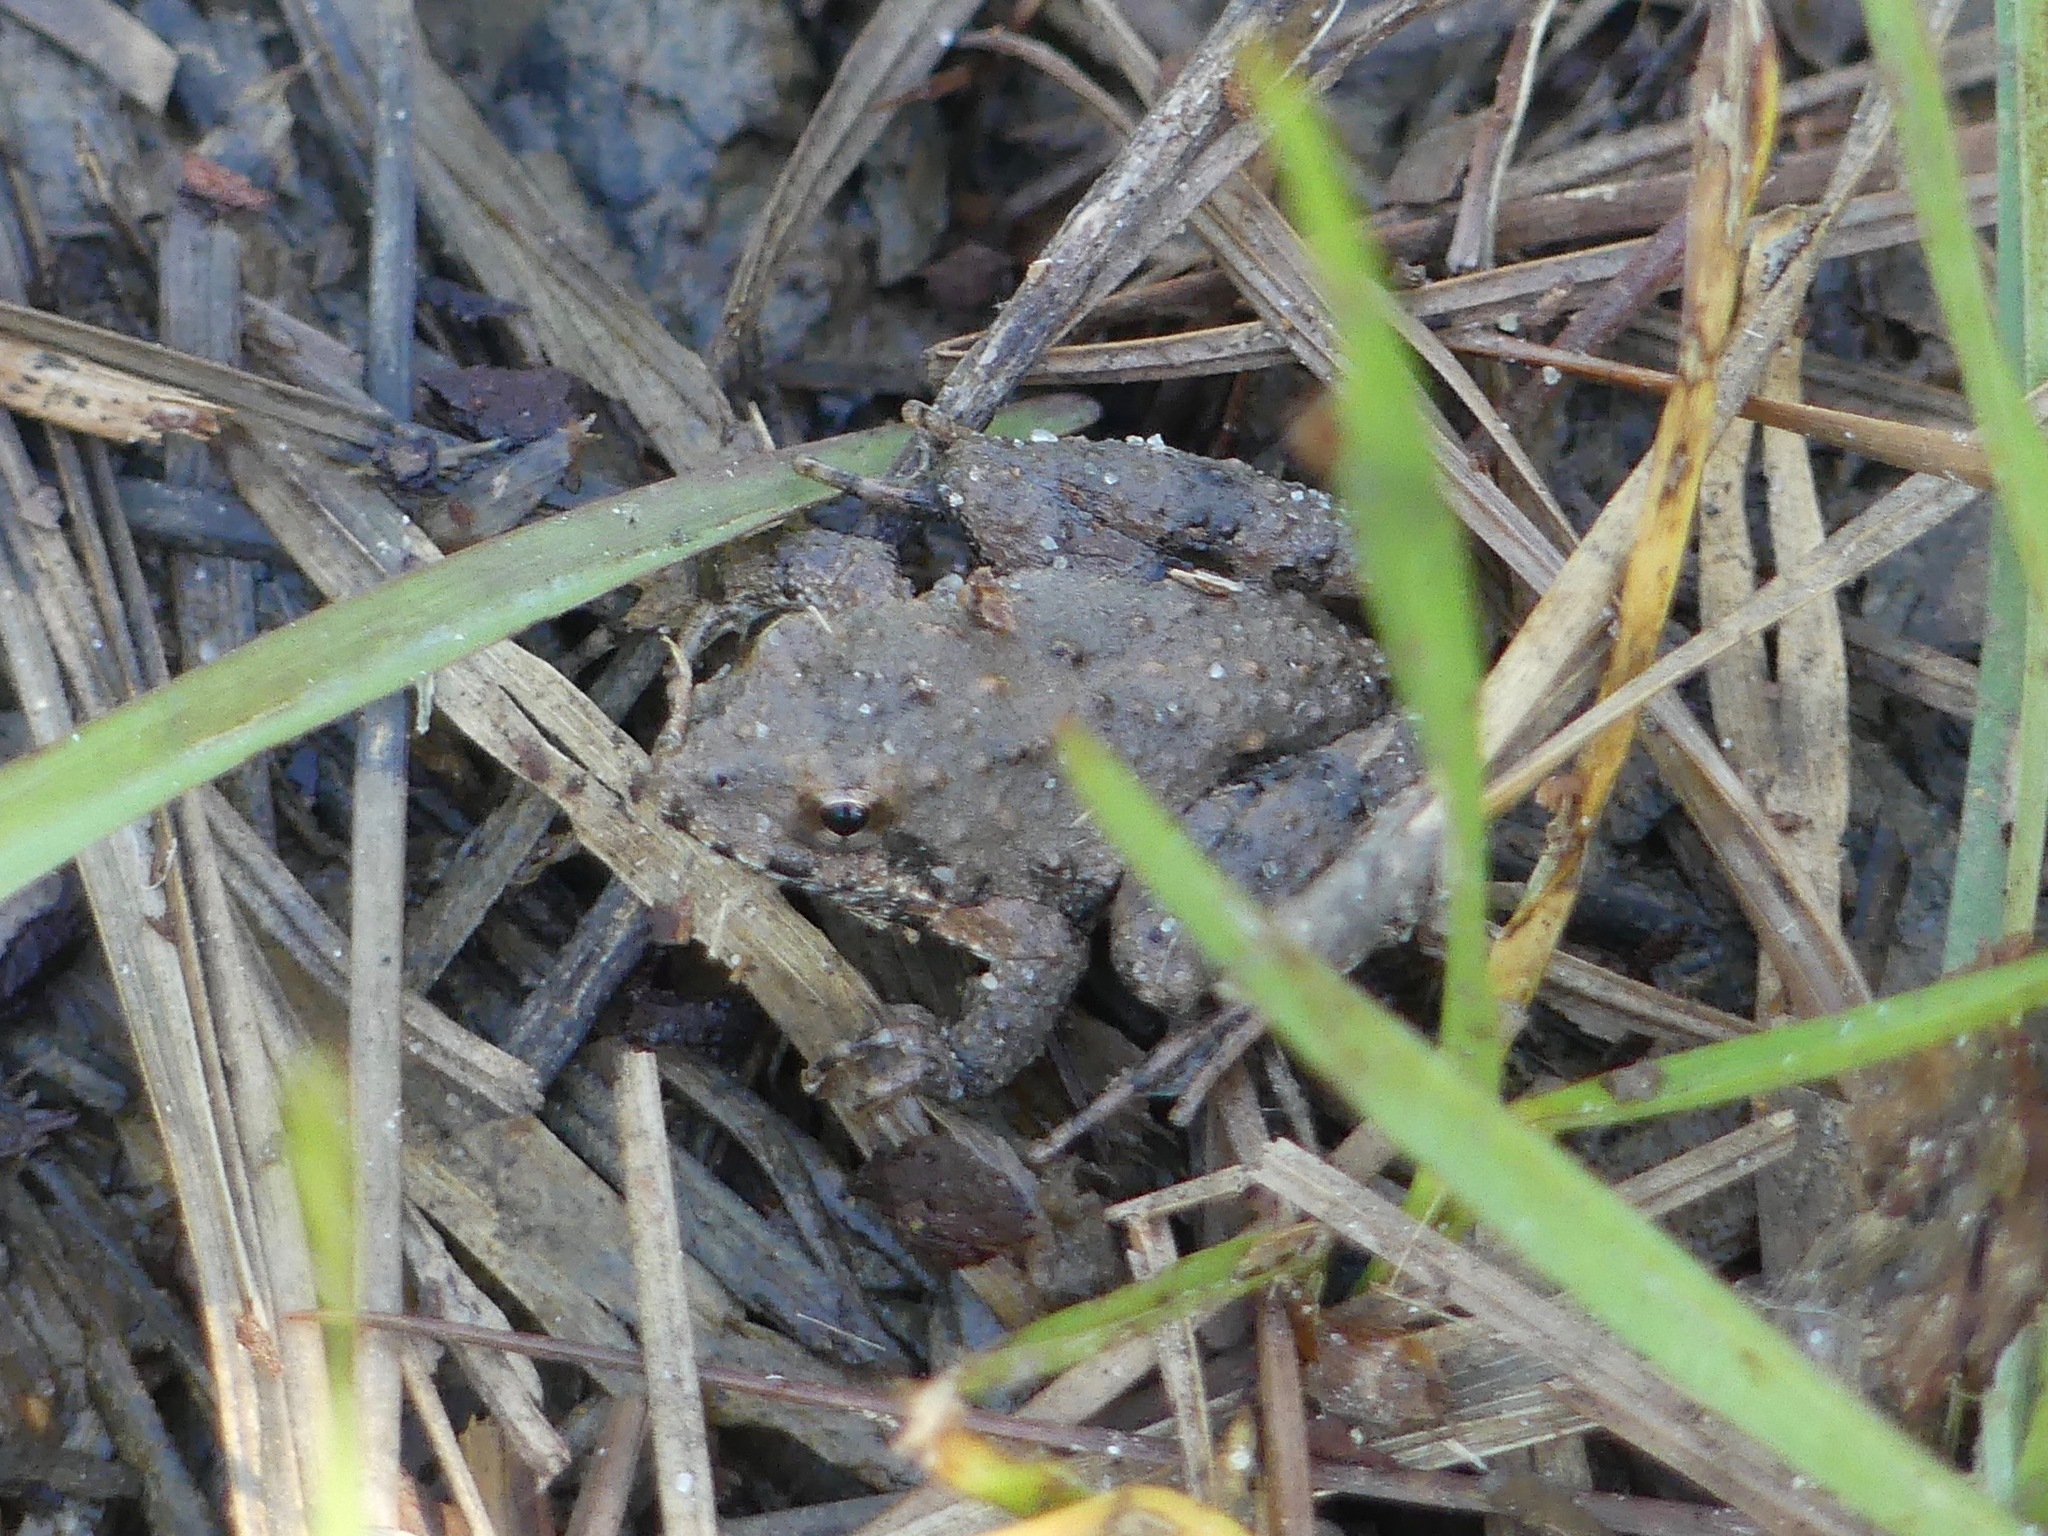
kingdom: Animalia
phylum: Chordata
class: Amphibia
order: Anura
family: Hylidae
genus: Acris
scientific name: Acris blanchardi
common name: Blanchard's cricket frog
